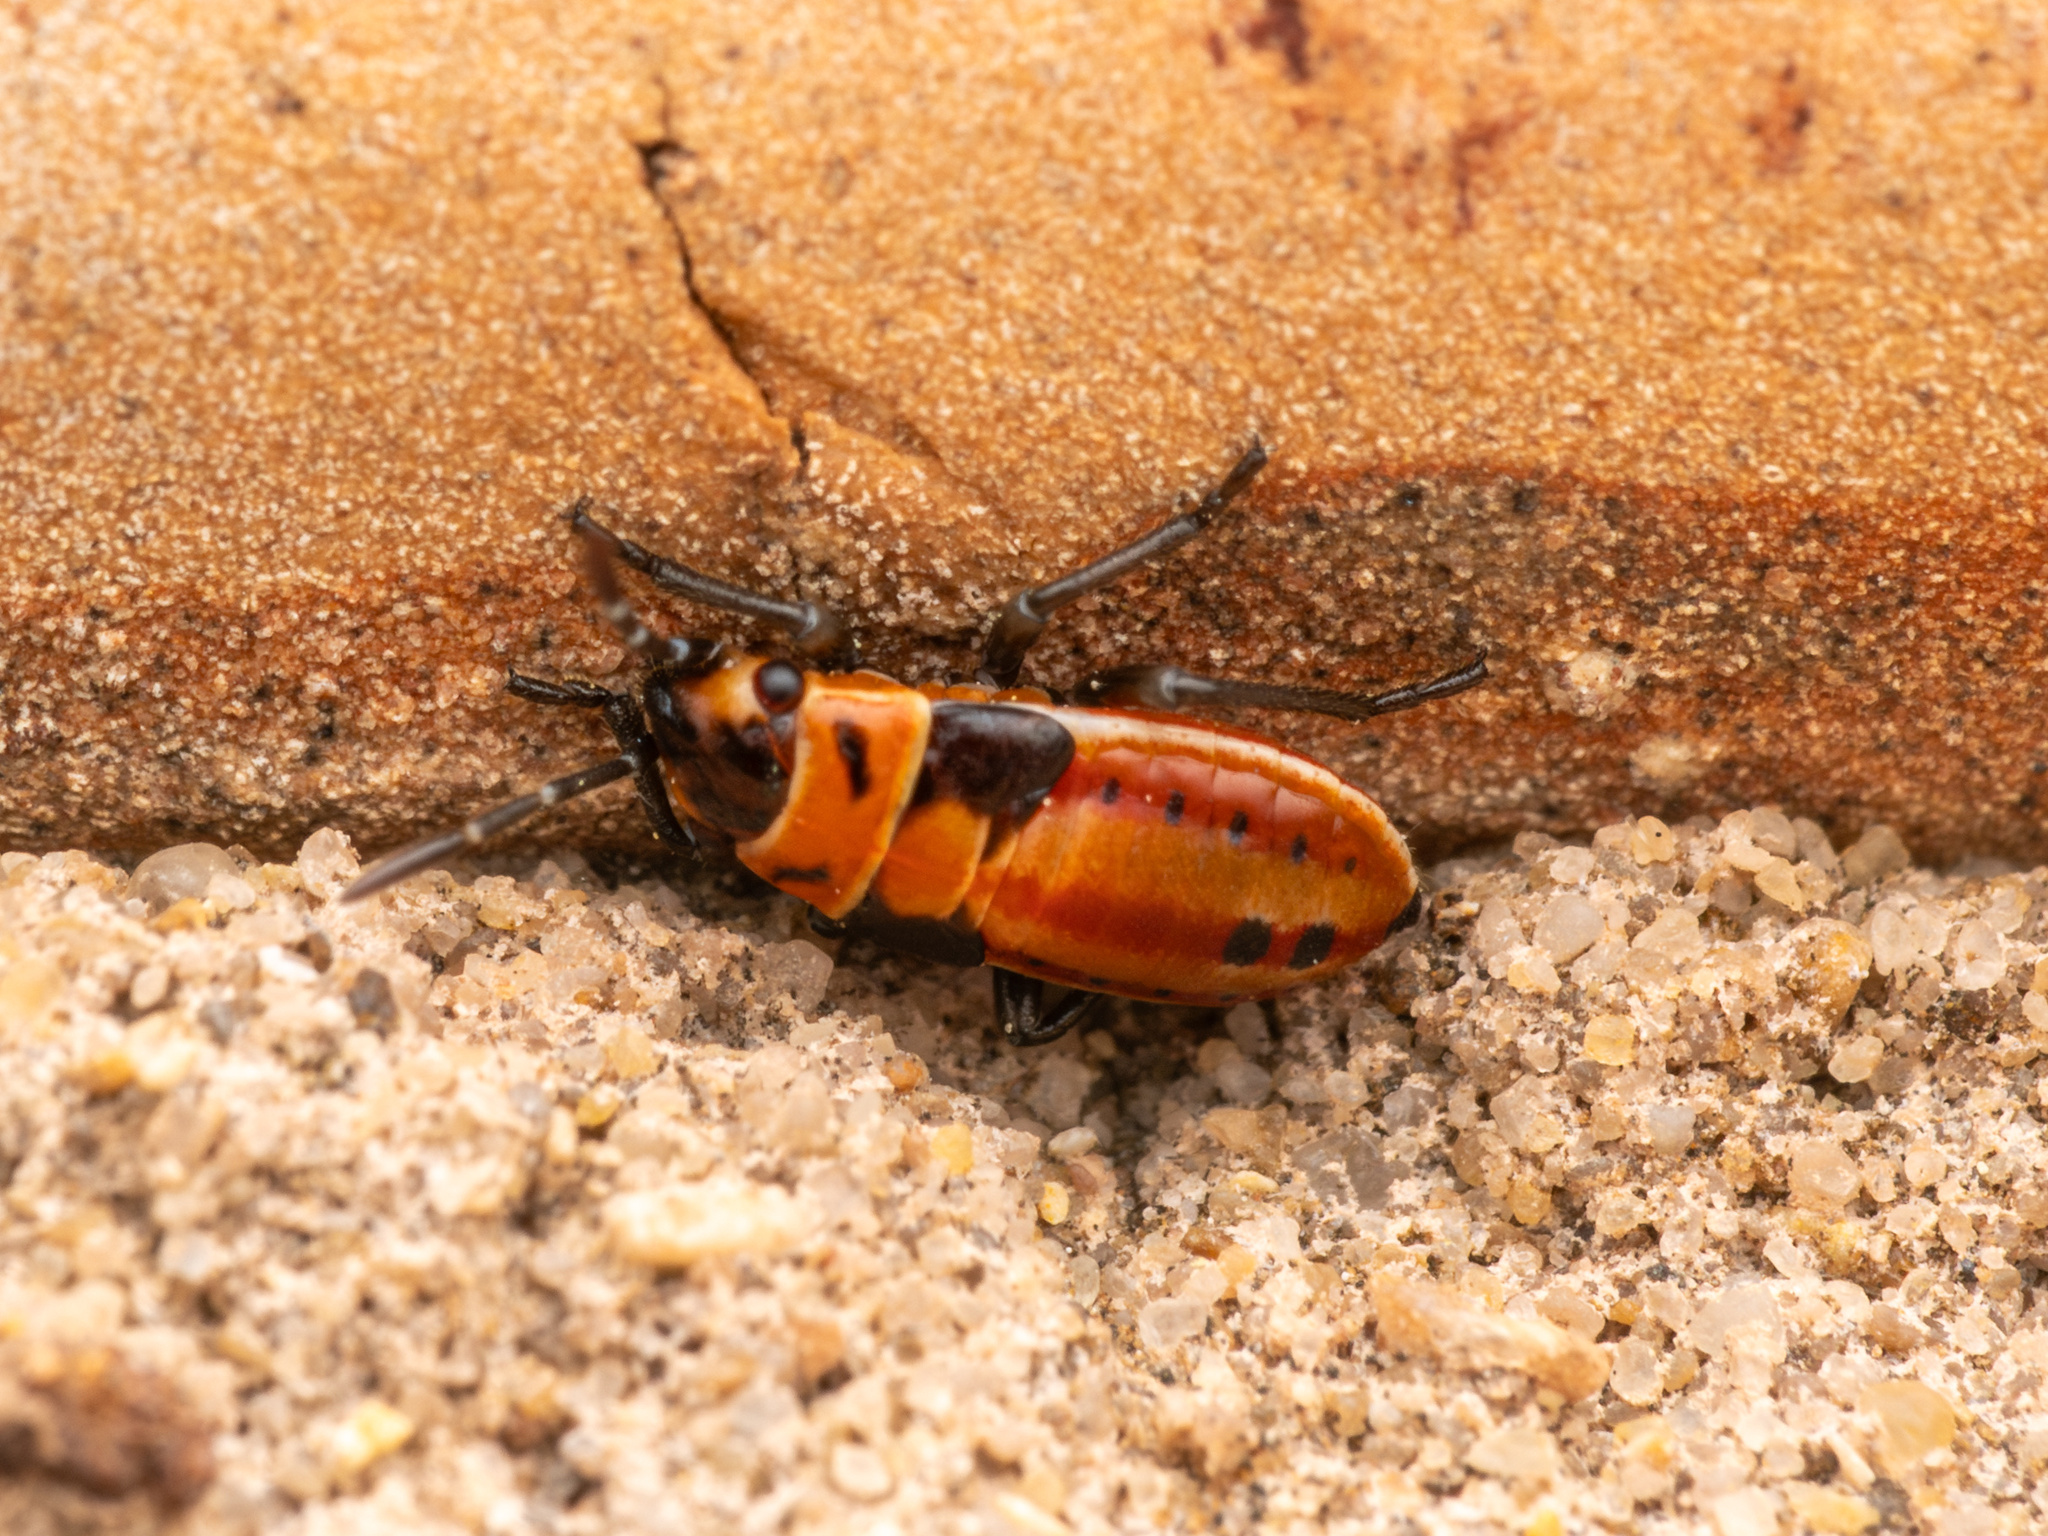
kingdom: Animalia
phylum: Arthropoda
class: Insecta
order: Hemiptera
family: Lygaeidae
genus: Lygaeus
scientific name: Lygaeus kalmii
